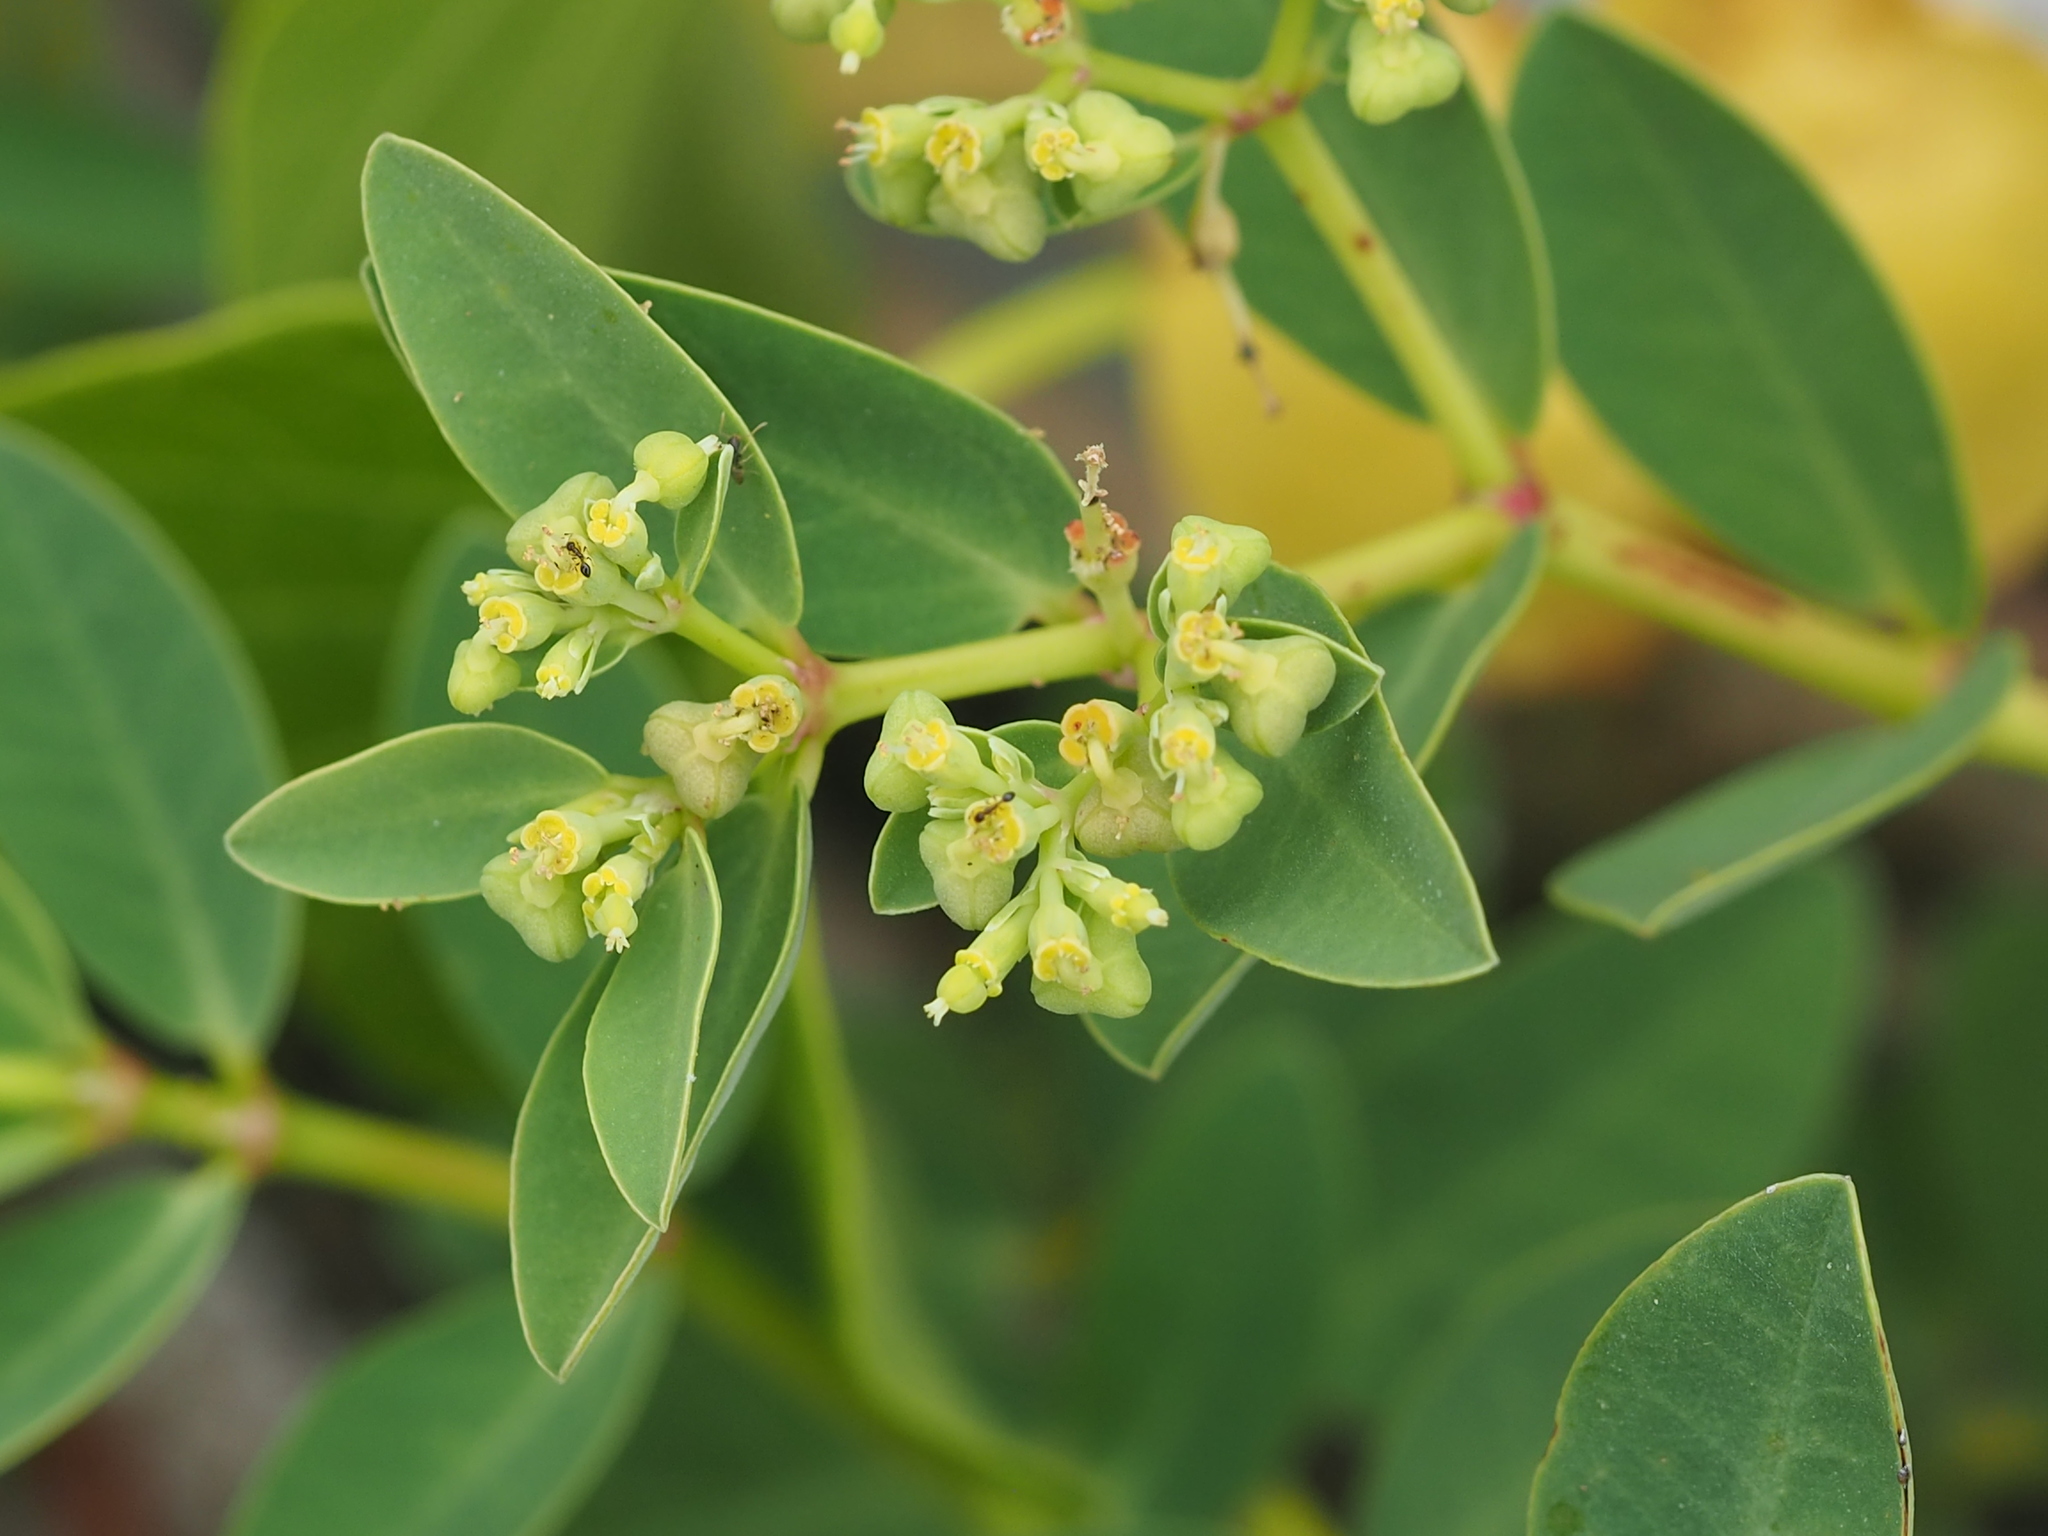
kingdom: Plantae
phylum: Tracheophyta
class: Magnoliopsida
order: Malpighiales
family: Euphorbiaceae
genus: Euphorbia
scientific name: Euphorbia atoto
